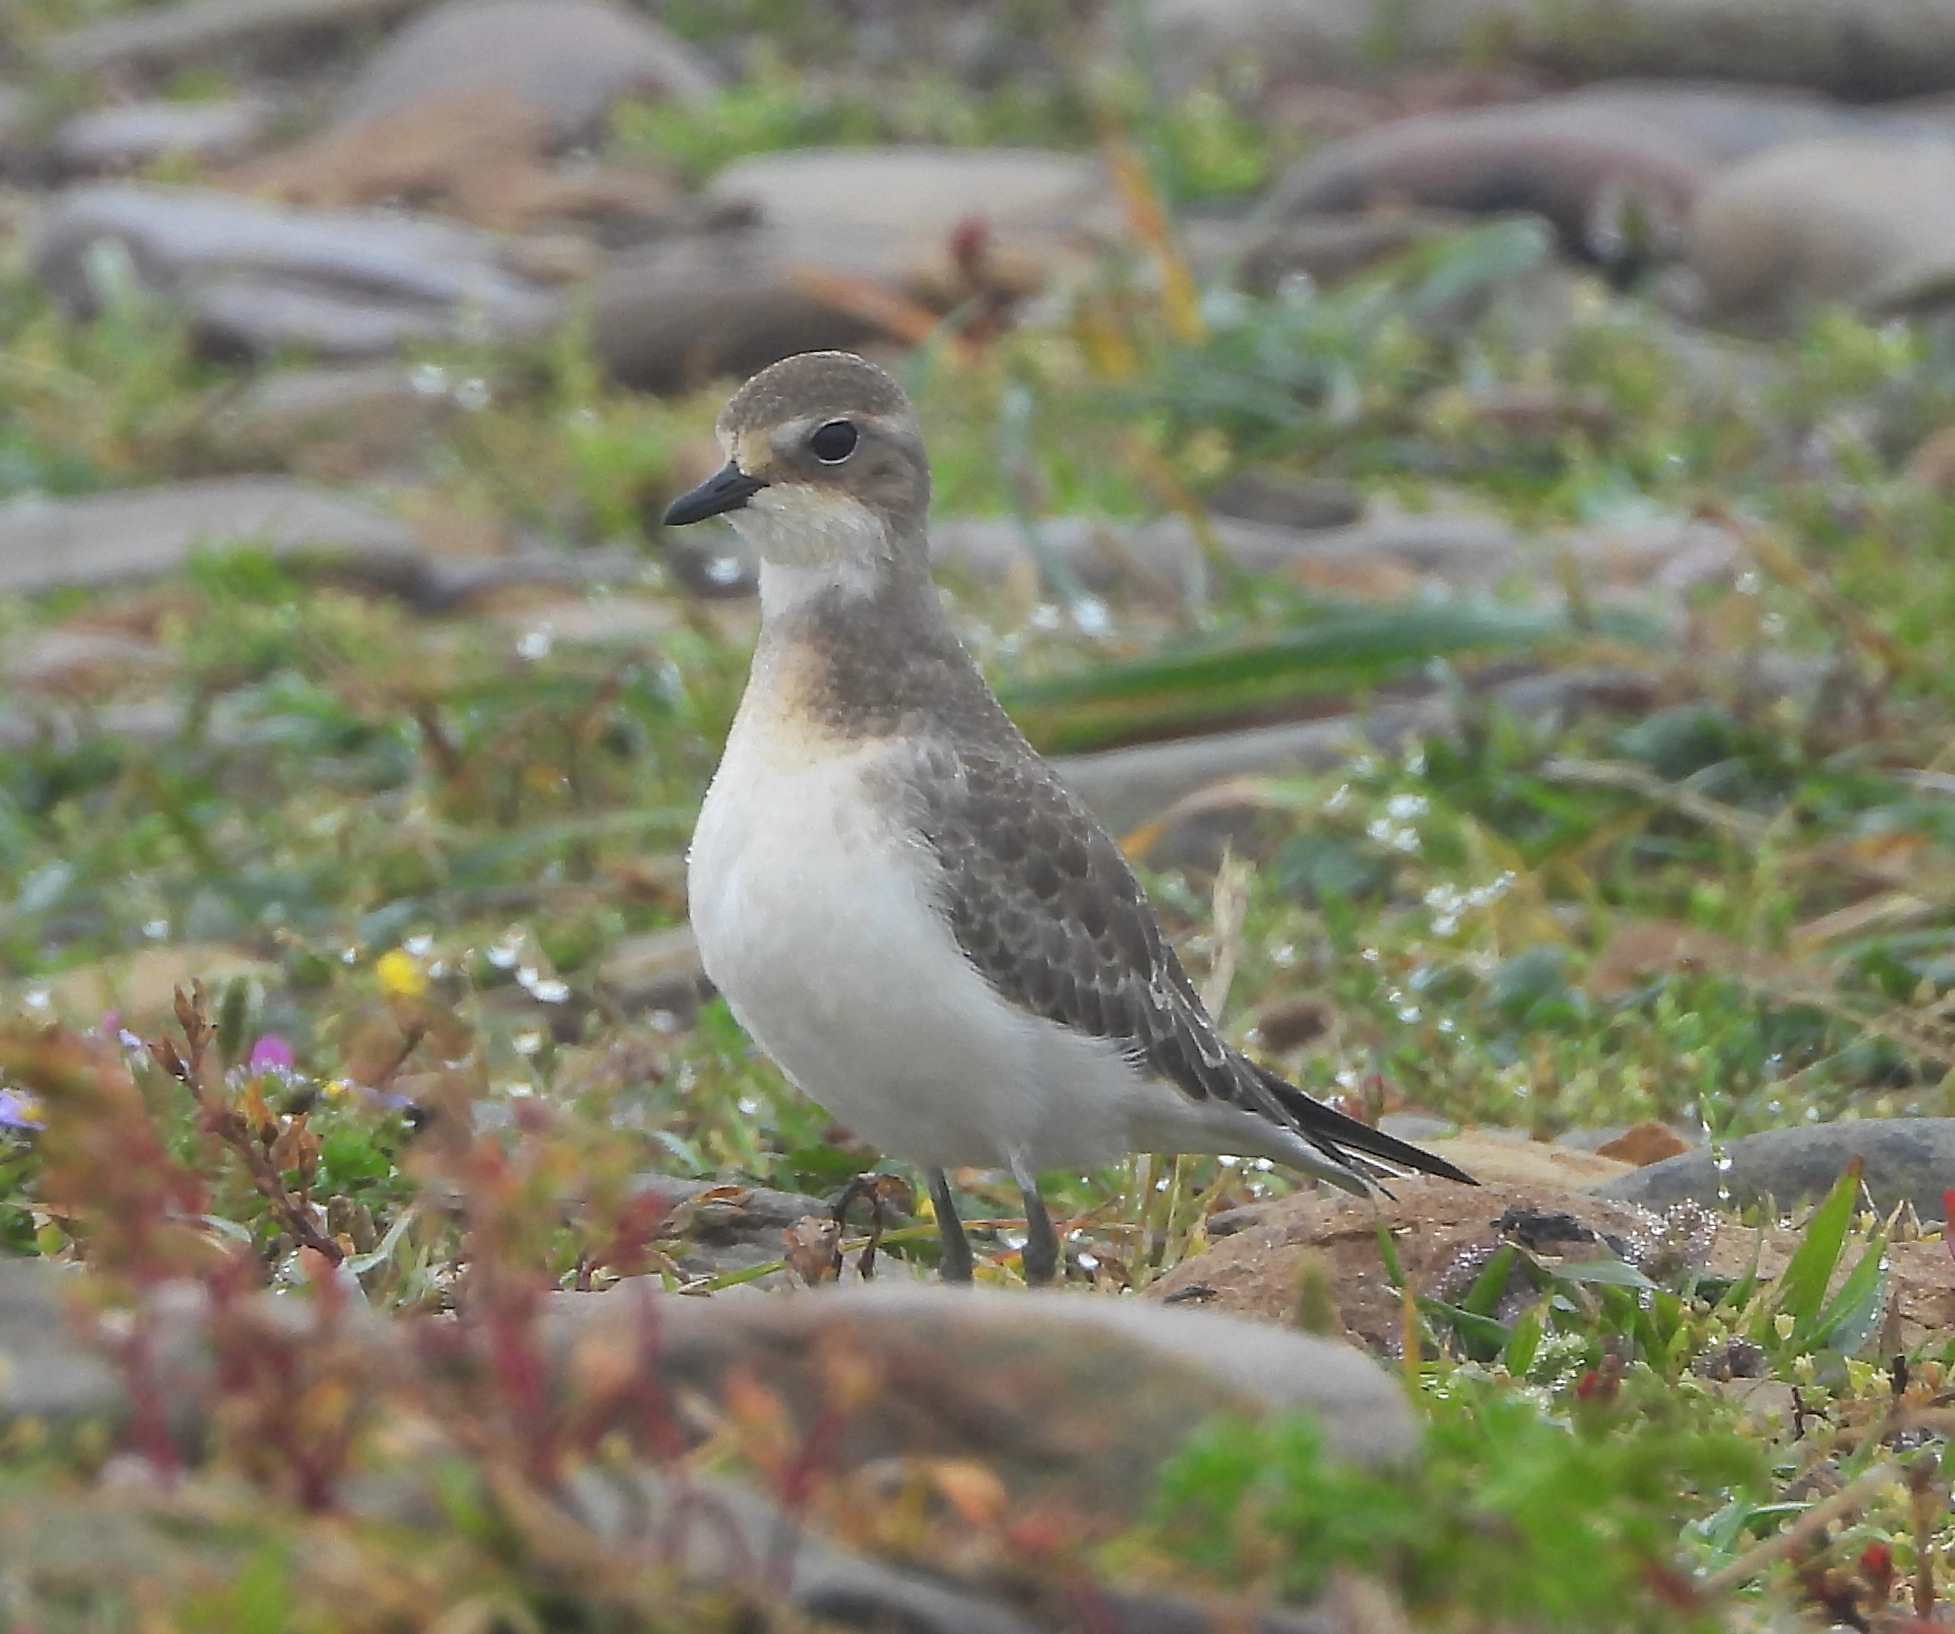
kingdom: Animalia
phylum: Chordata
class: Aves
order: Charadriiformes
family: Charadriidae
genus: Anarhynchus
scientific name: Anarhynchus
